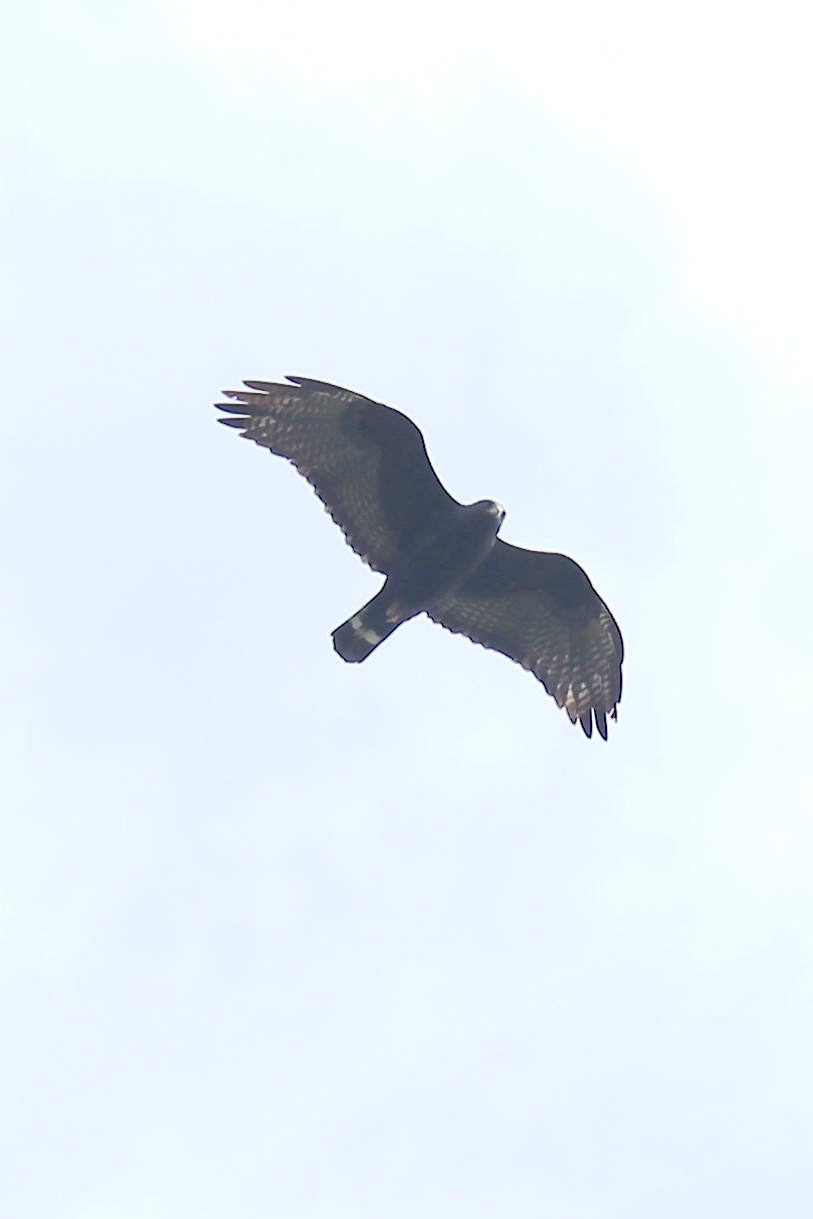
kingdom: Animalia
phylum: Chordata
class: Aves
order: Accipitriformes
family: Accipitridae
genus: Buteo
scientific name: Buteo albonotatus
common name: Zone-tailed hawk
